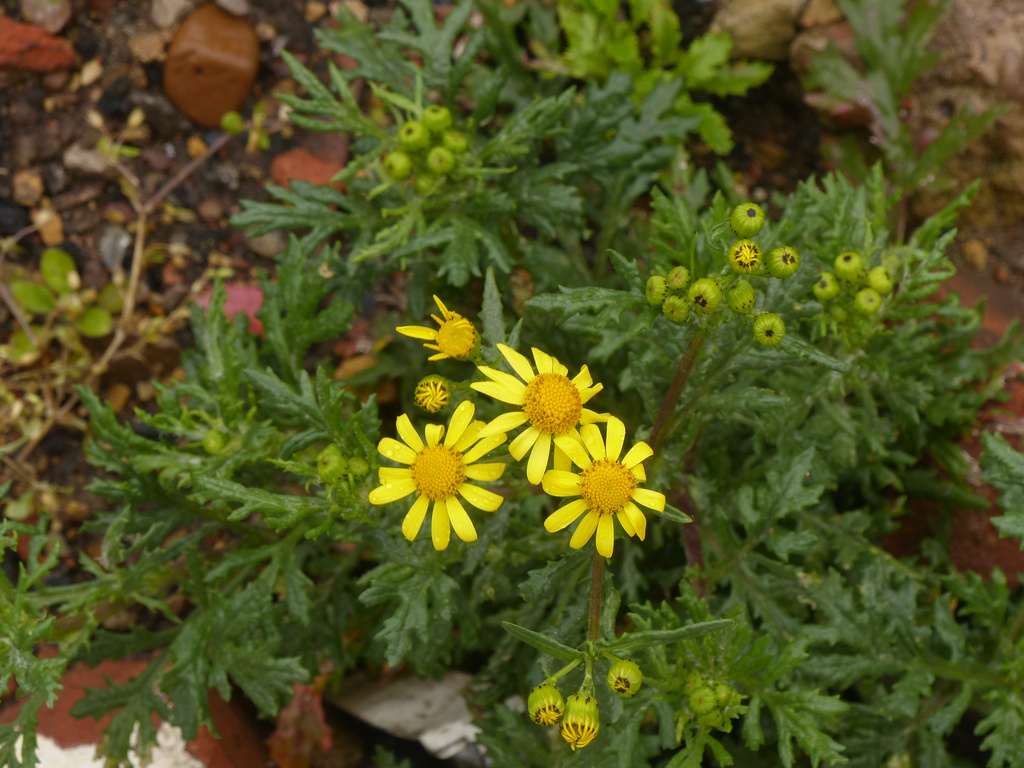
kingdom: Plantae
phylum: Tracheophyta
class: Magnoliopsida
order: Asterales
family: Asteraceae
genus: Senecio
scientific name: Senecio squalidus
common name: Oxford ragwort
